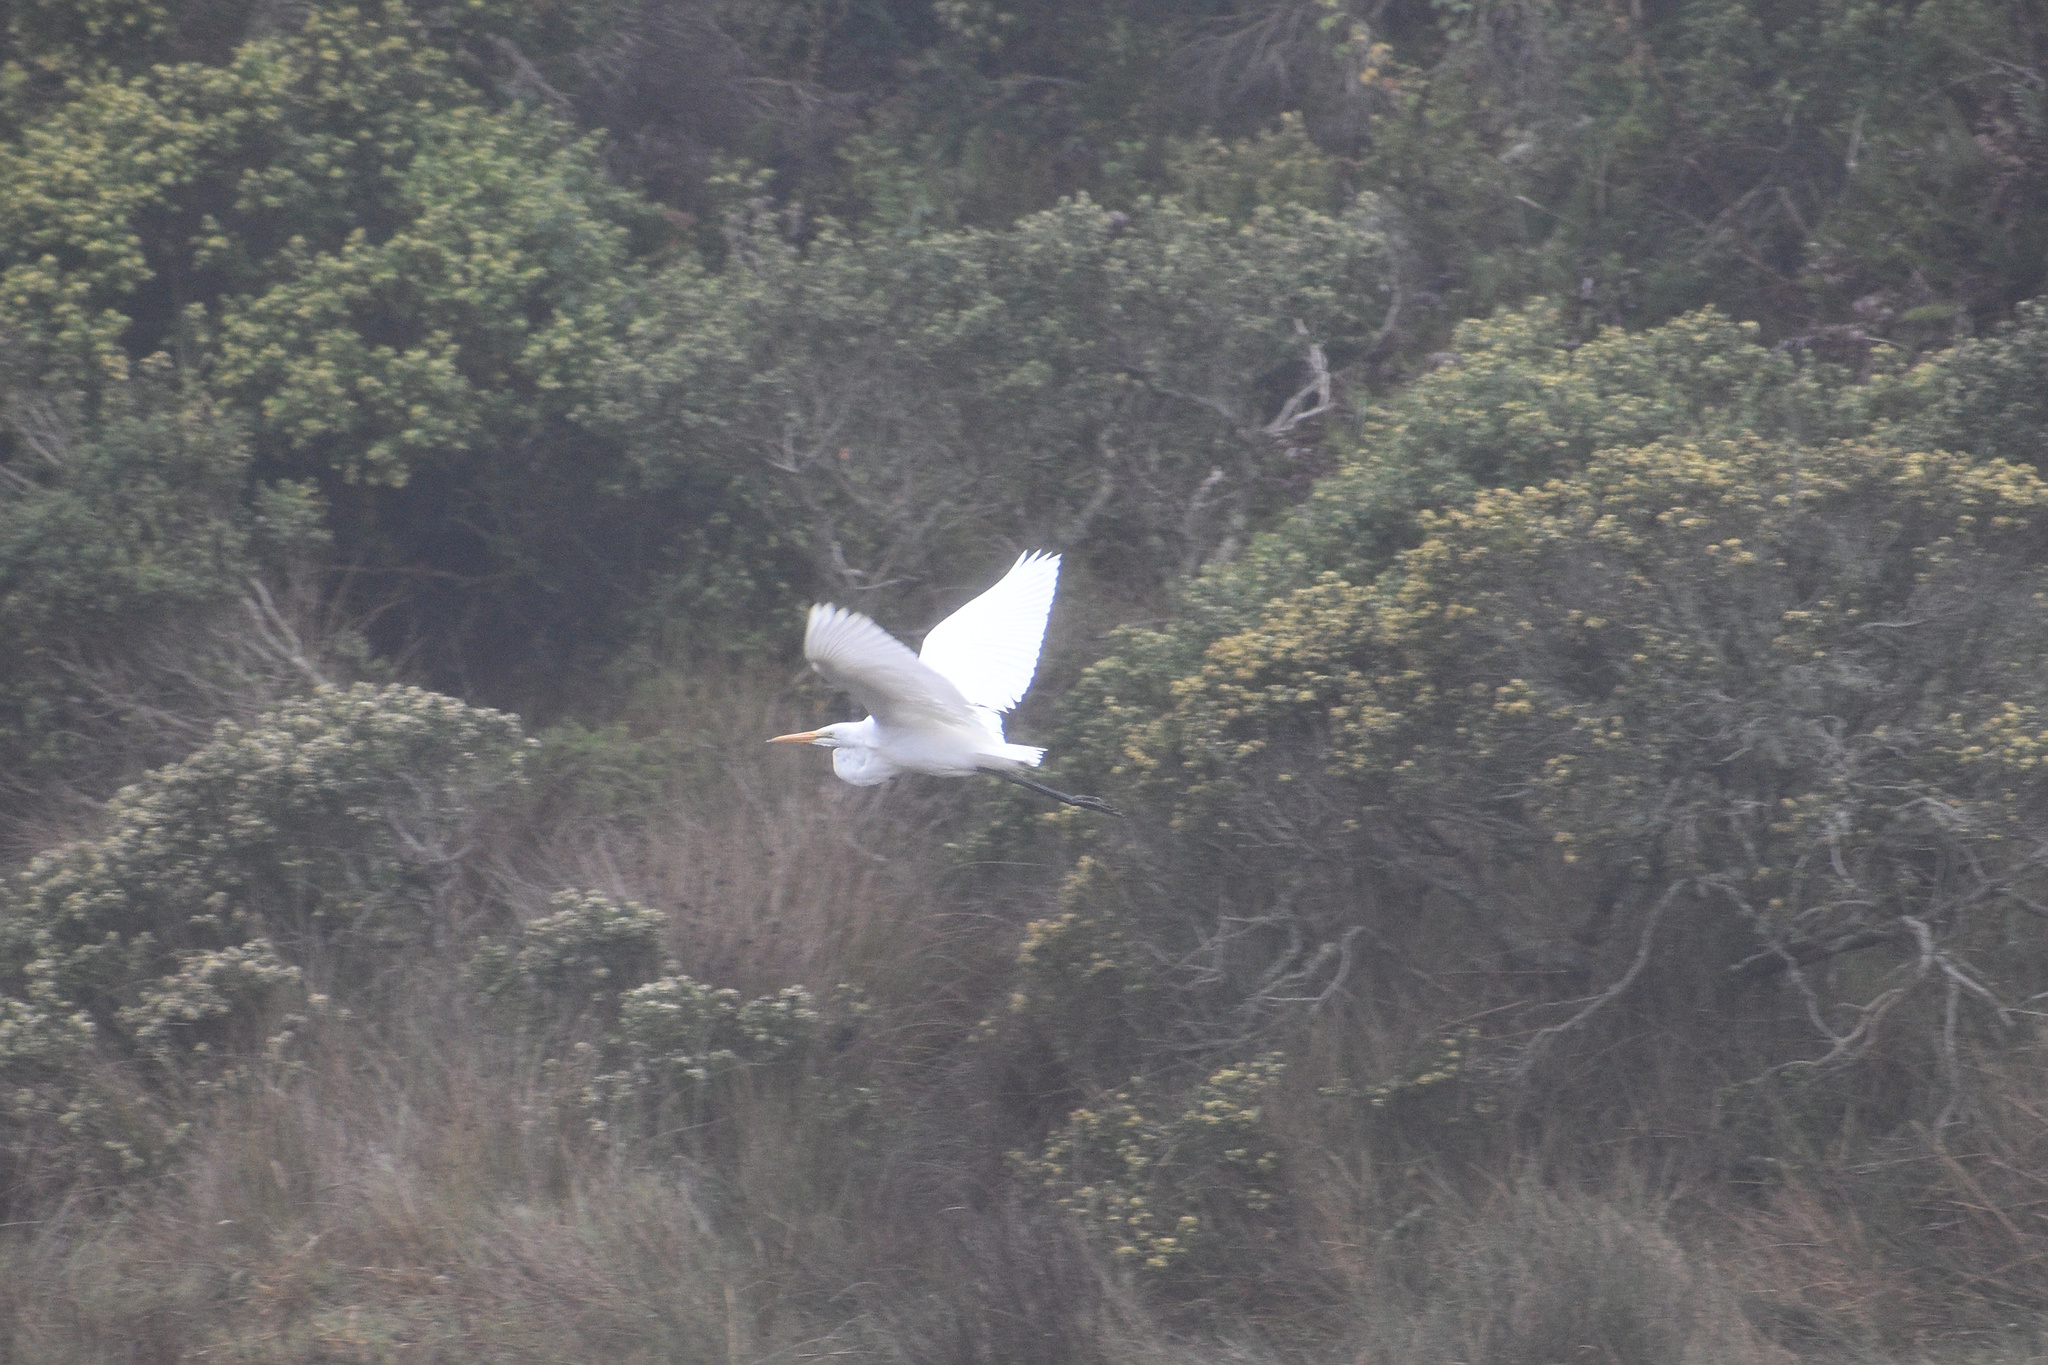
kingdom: Animalia
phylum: Chordata
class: Aves
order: Pelecaniformes
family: Ardeidae
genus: Ardea
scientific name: Ardea alba
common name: Great egret
